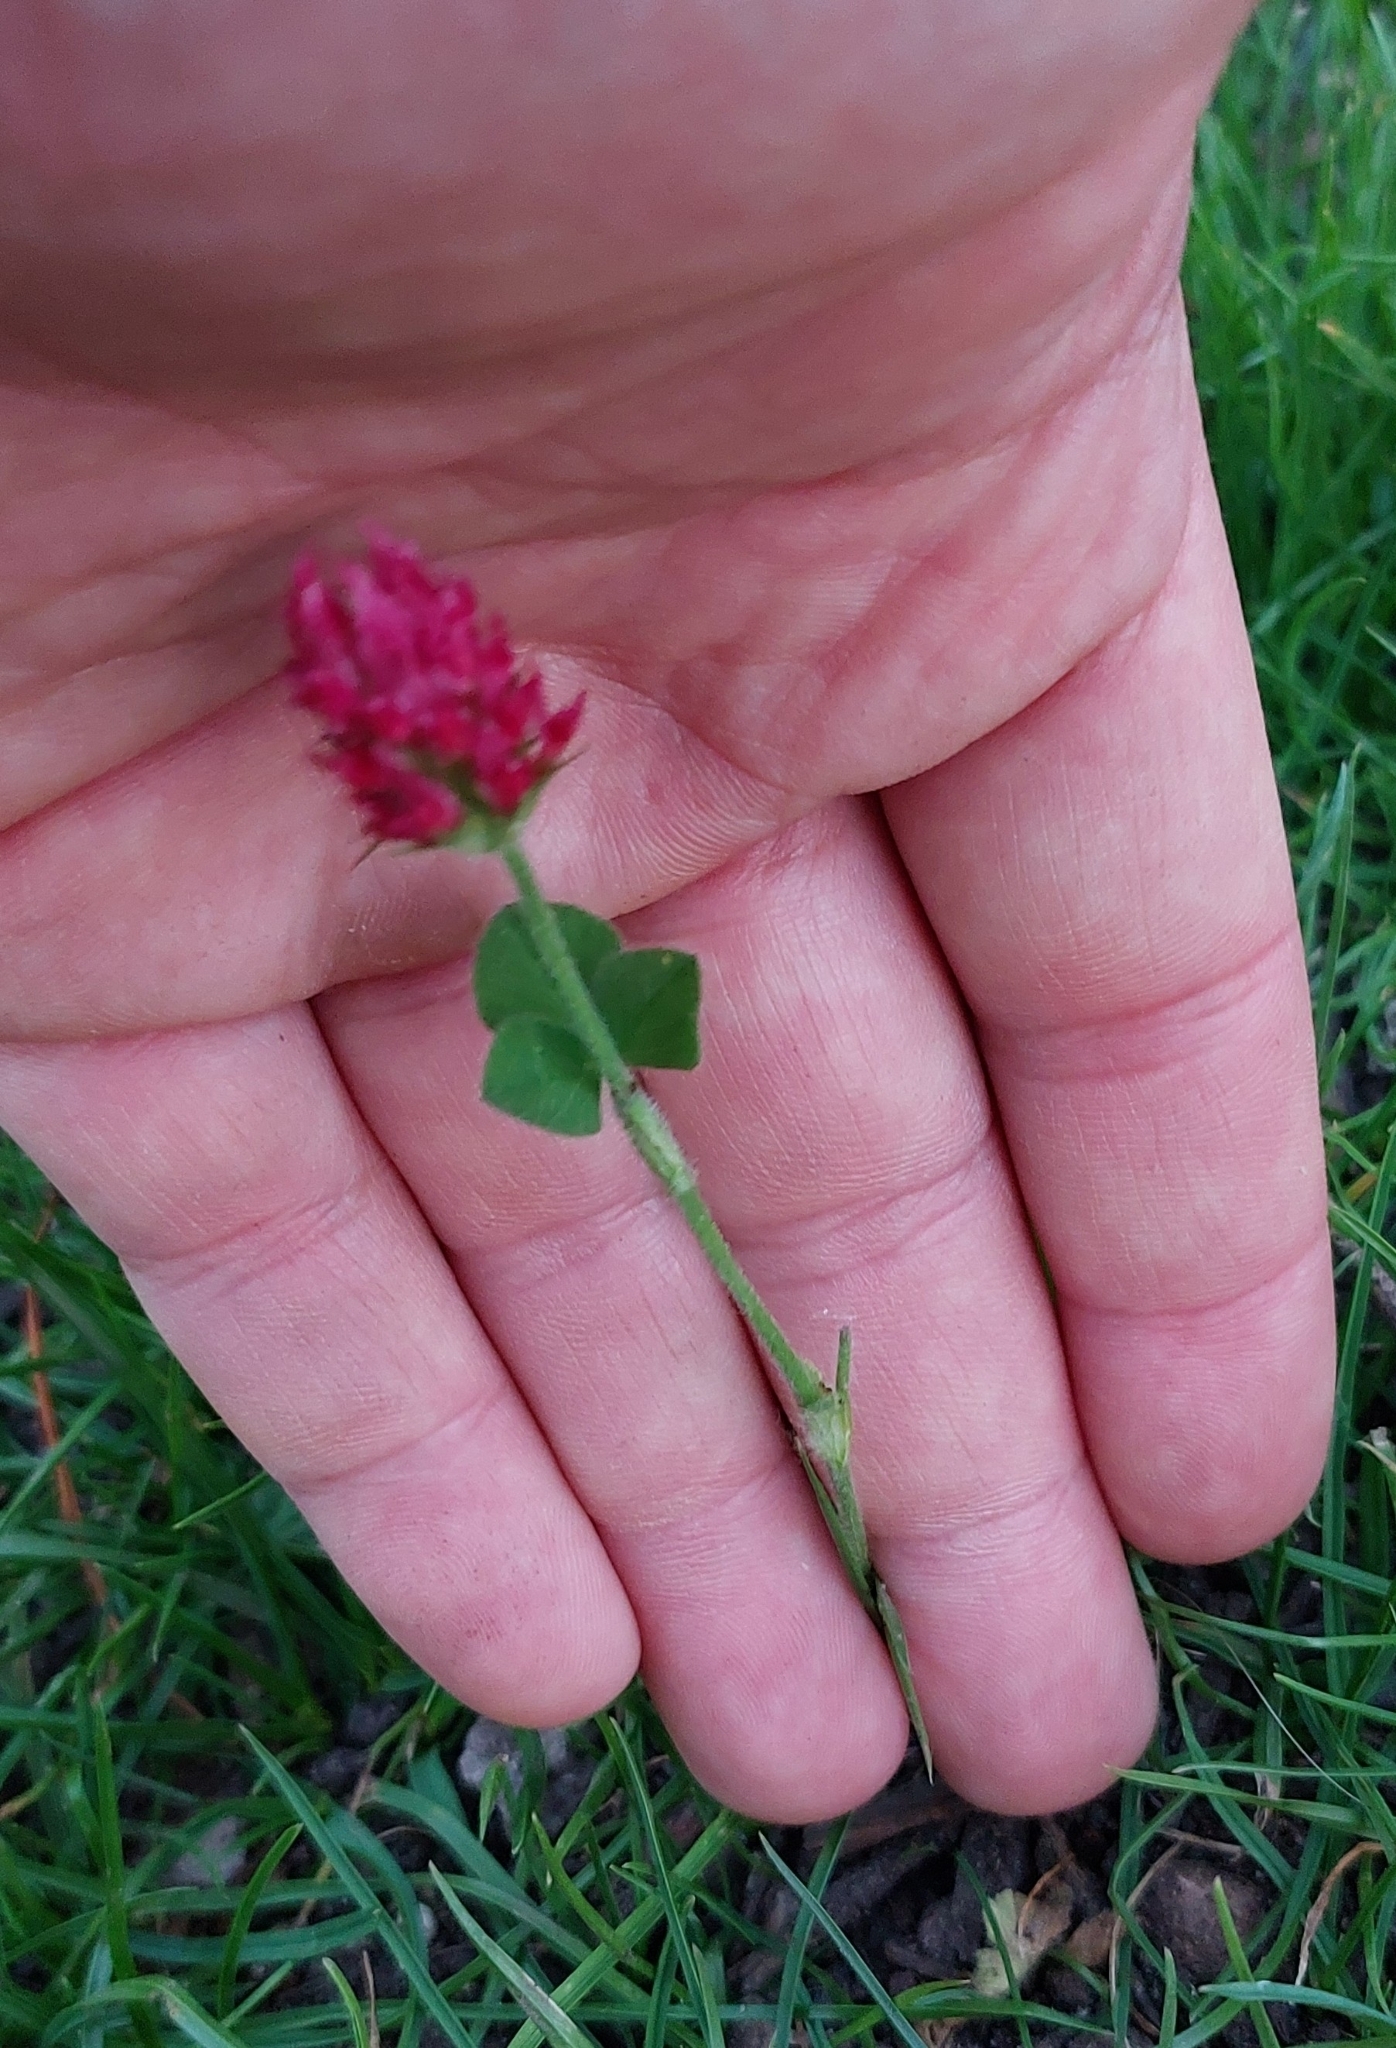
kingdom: Plantae
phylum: Tracheophyta
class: Magnoliopsida
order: Fabales
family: Fabaceae
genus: Trifolium
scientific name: Trifolium incarnatum
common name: Crimson clover
